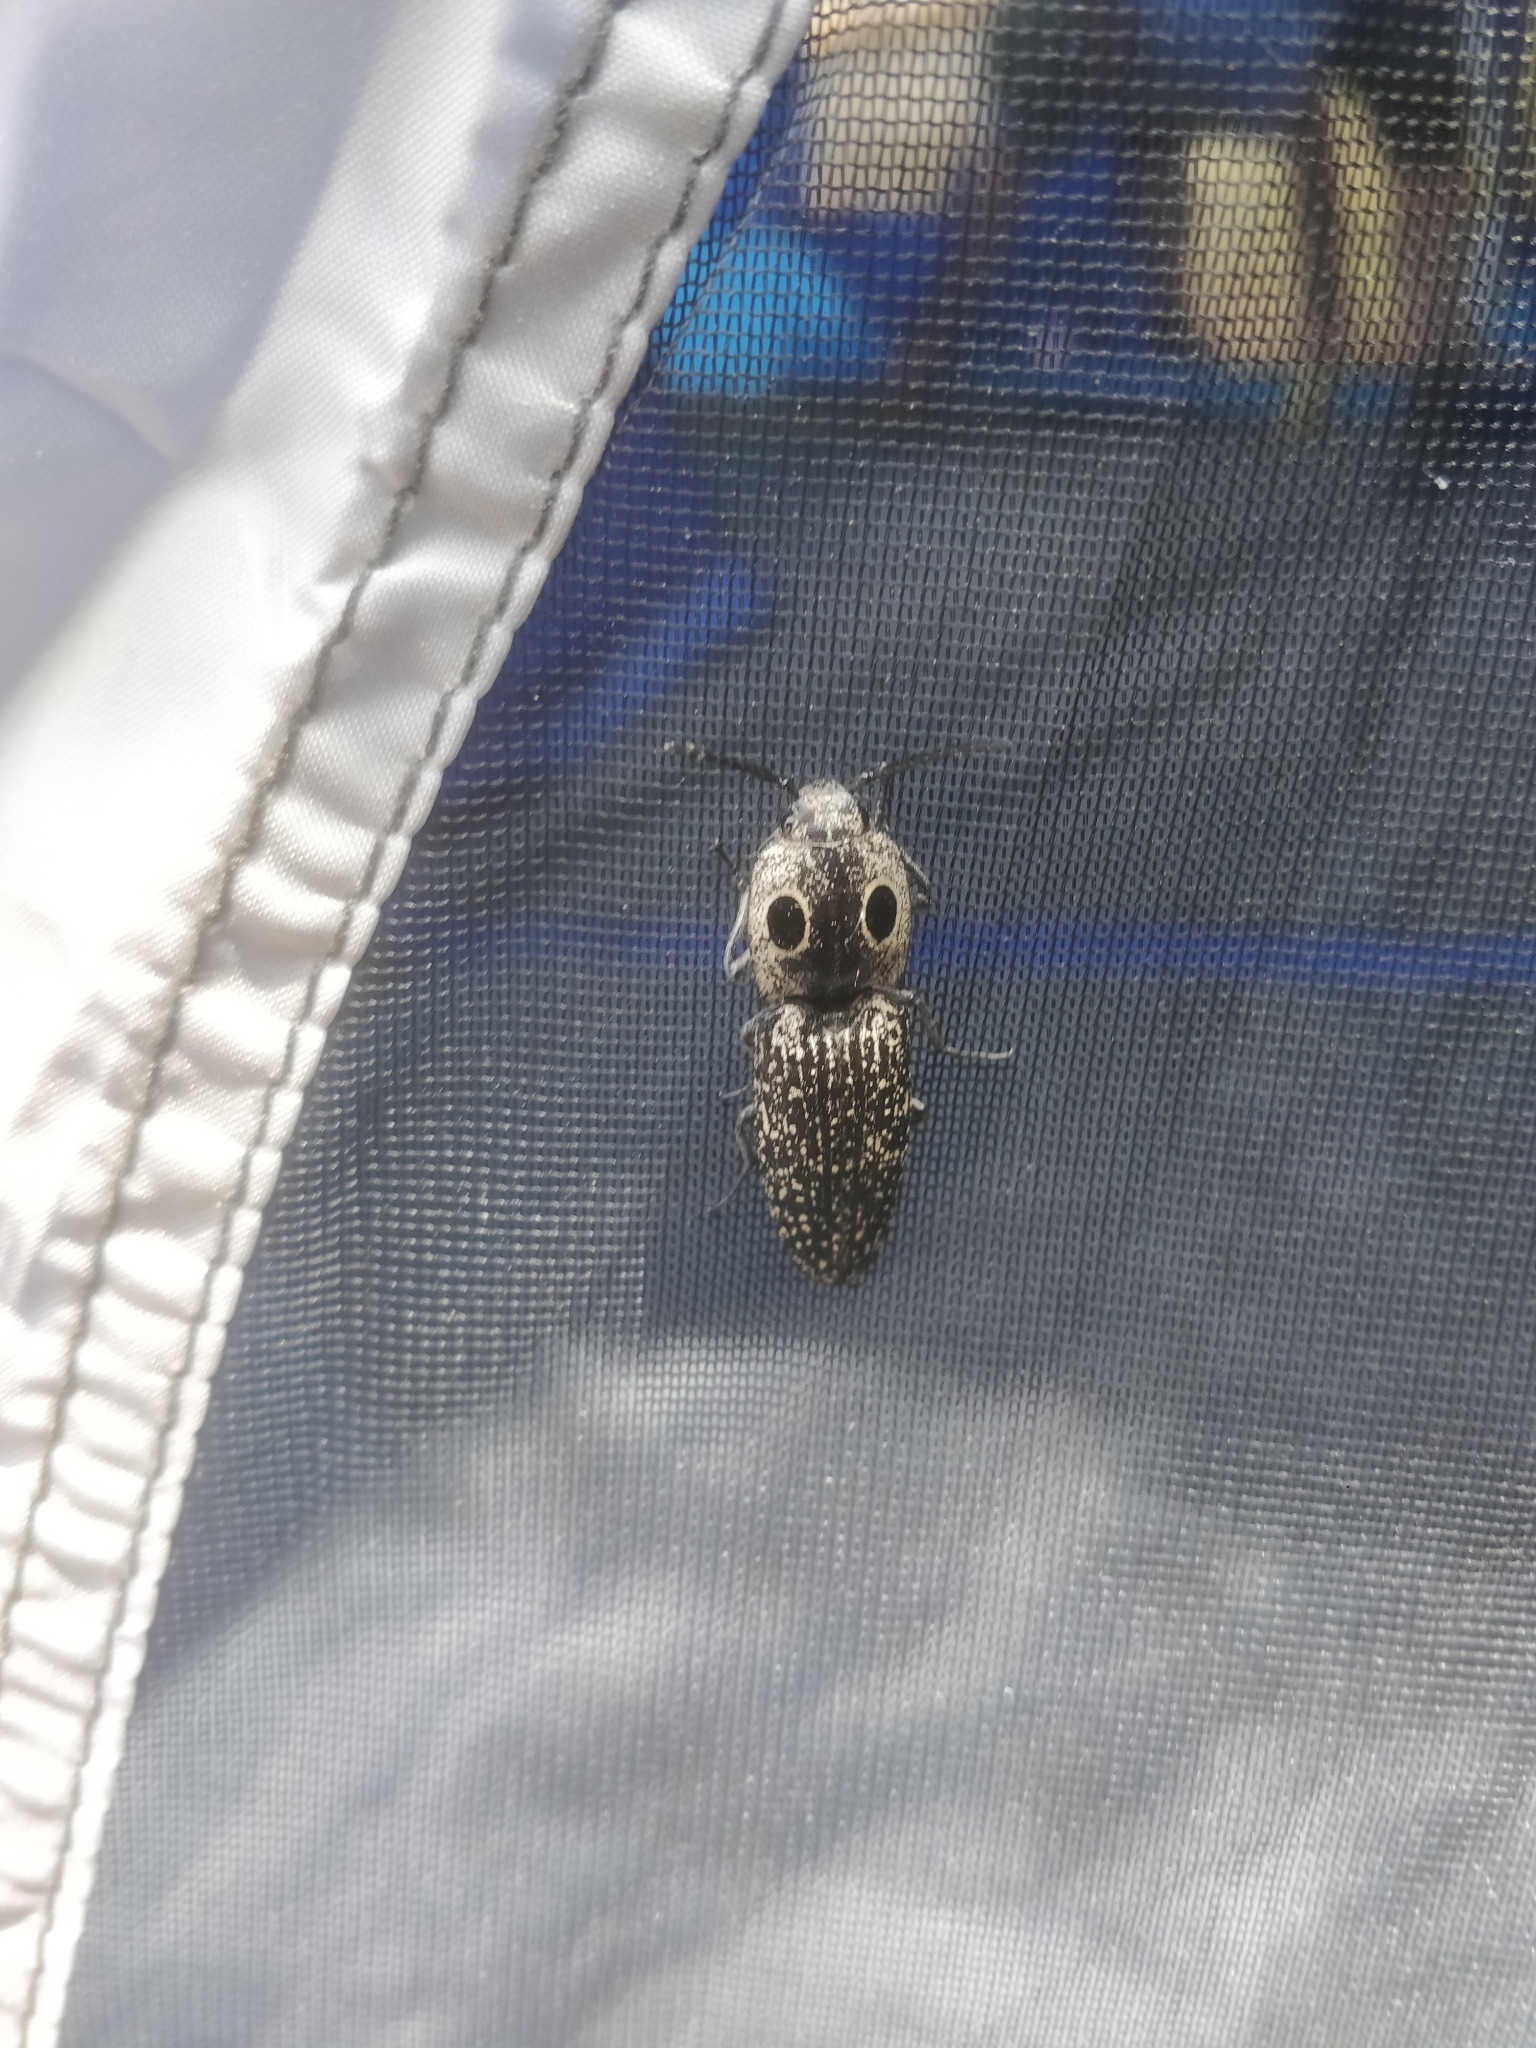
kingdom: Animalia
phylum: Arthropoda
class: Insecta
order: Coleoptera
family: Elateridae
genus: Alaus
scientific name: Alaus oculatus
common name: Eastern eyed click beetle
